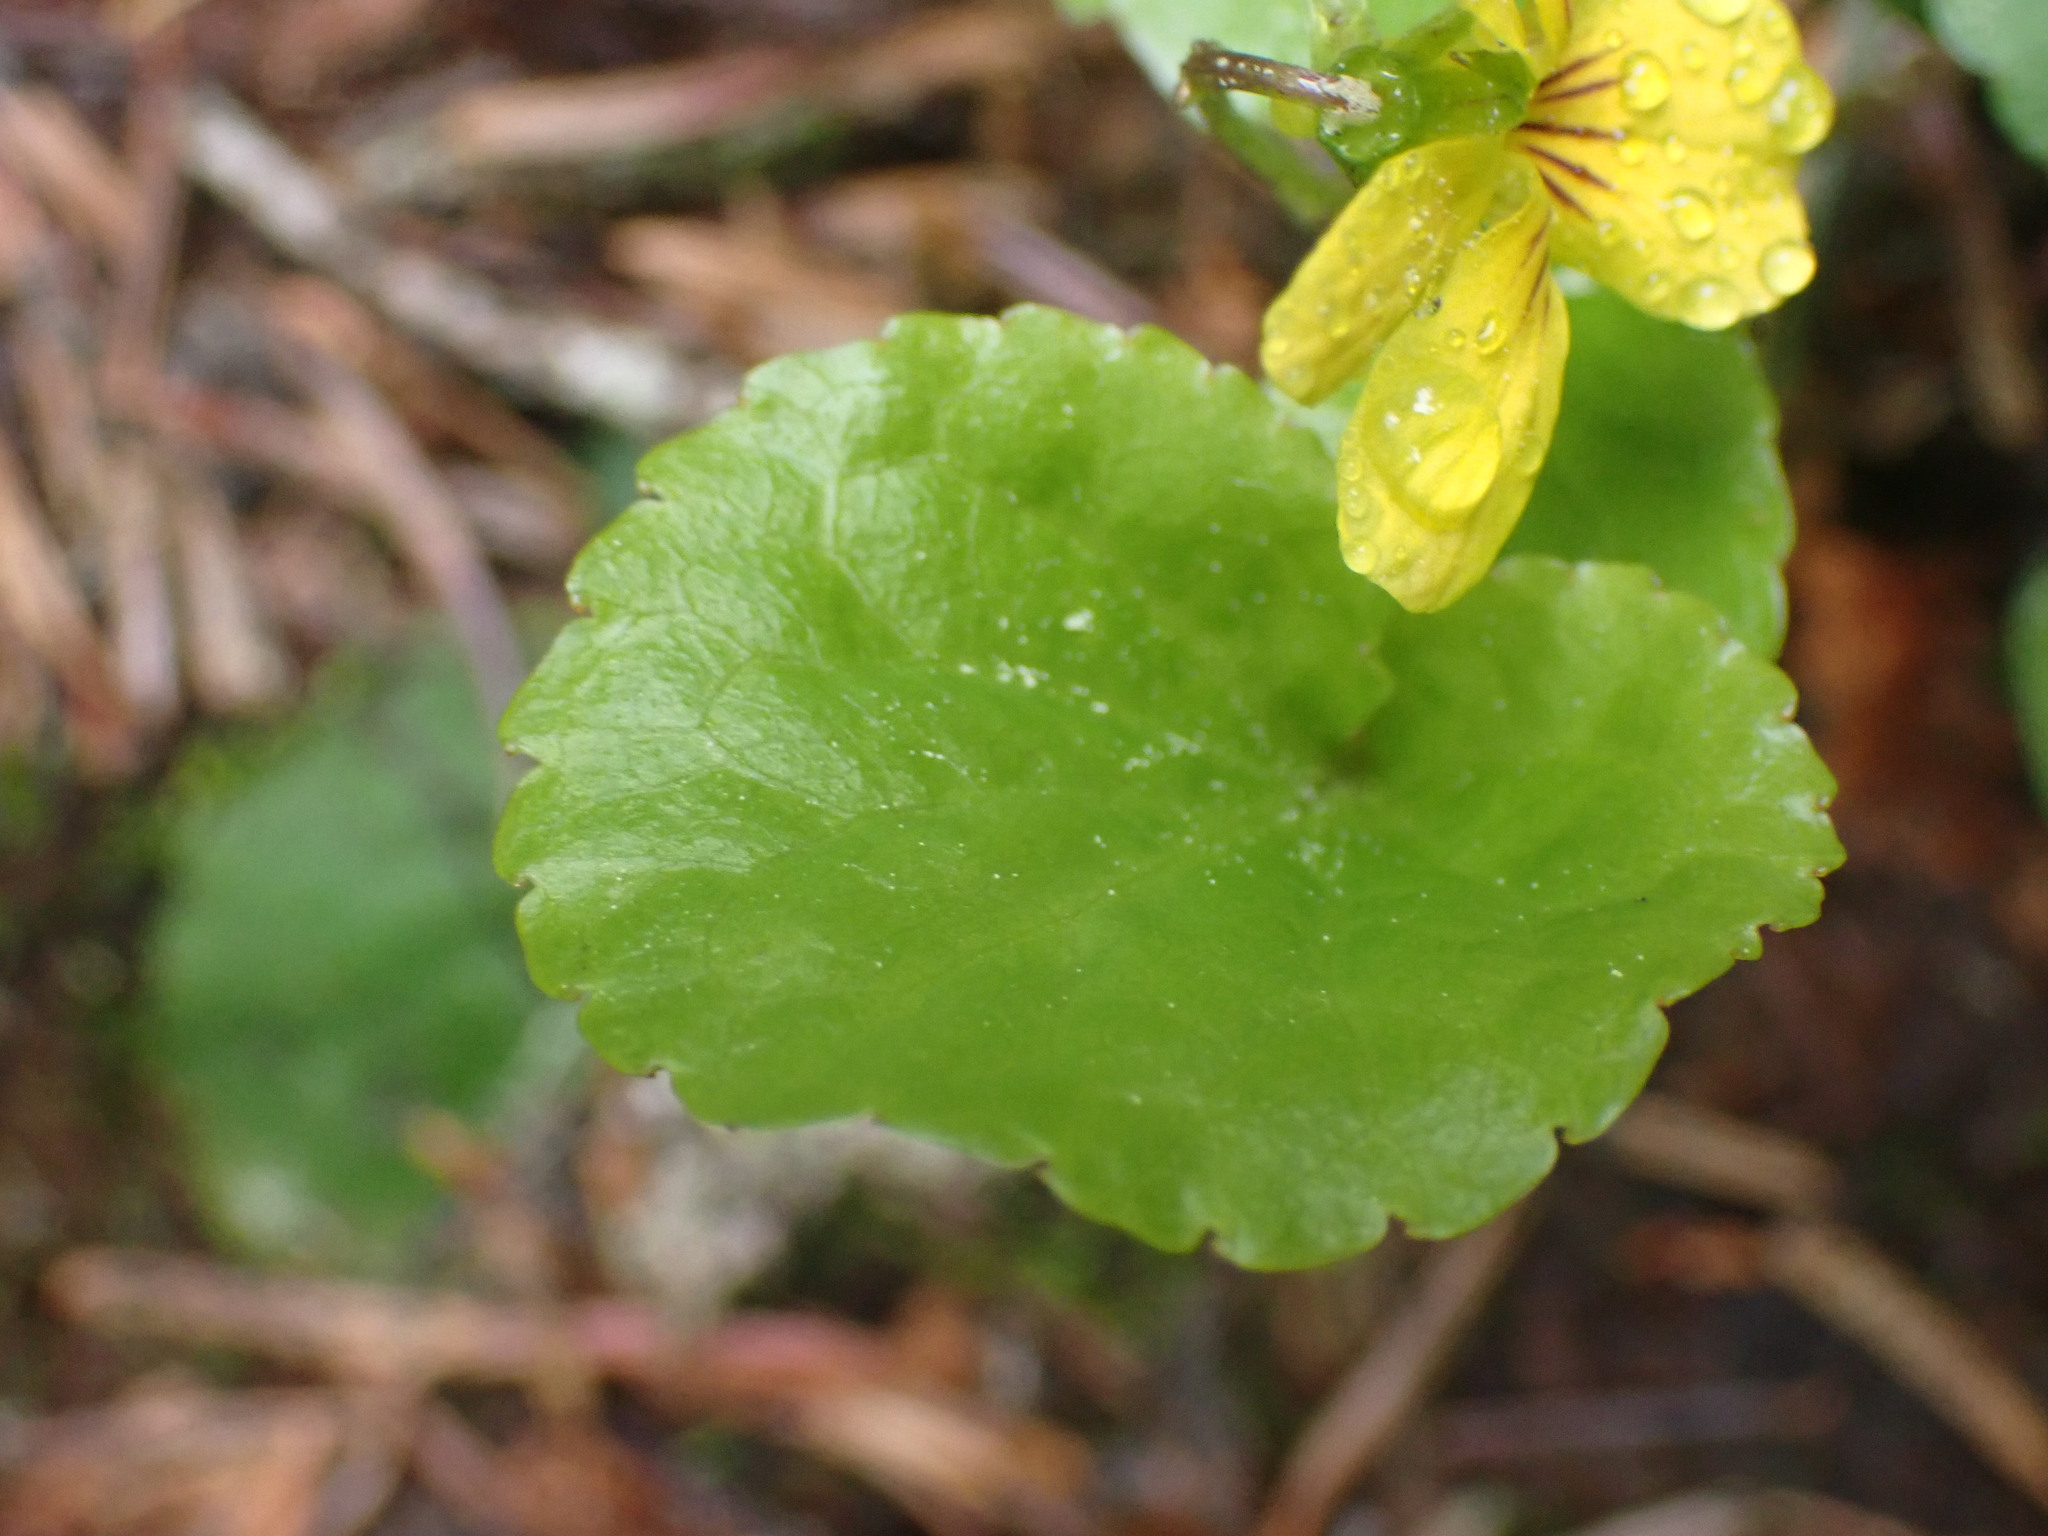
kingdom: Plantae
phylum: Tracheophyta
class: Magnoliopsida
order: Malpighiales
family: Violaceae
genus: Viola
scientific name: Viola orbiculata
